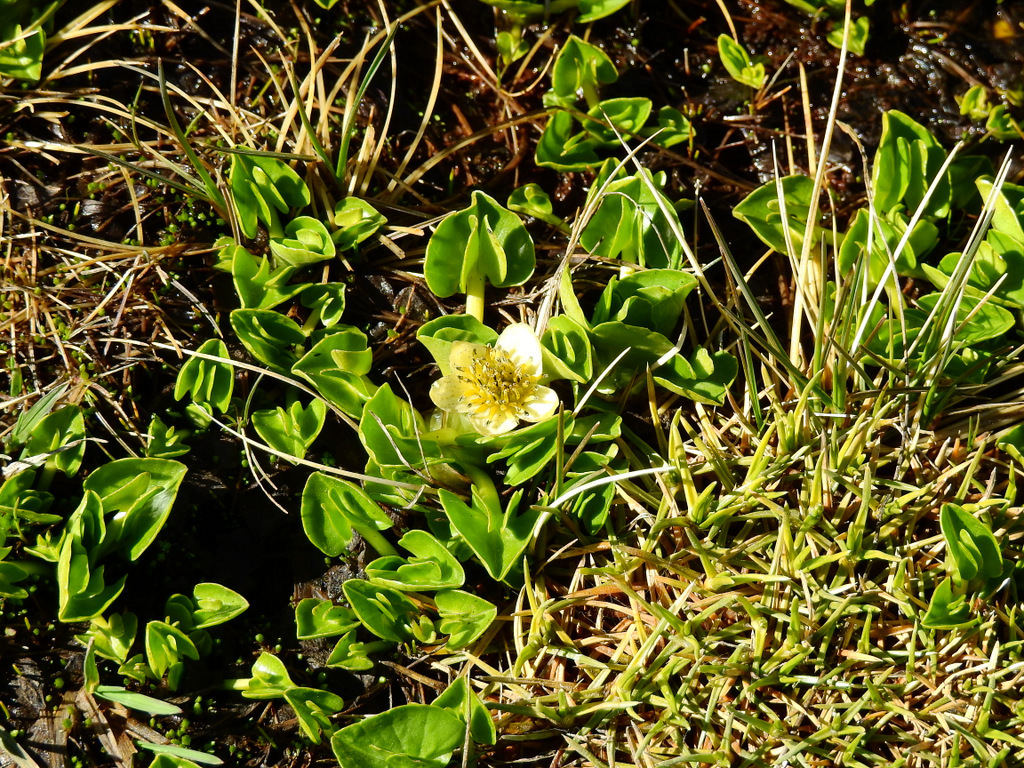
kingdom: Plantae
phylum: Tracheophyta
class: Magnoliopsida
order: Ranunculales
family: Ranunculaceae
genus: Caltha
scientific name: Caltha sagittata
